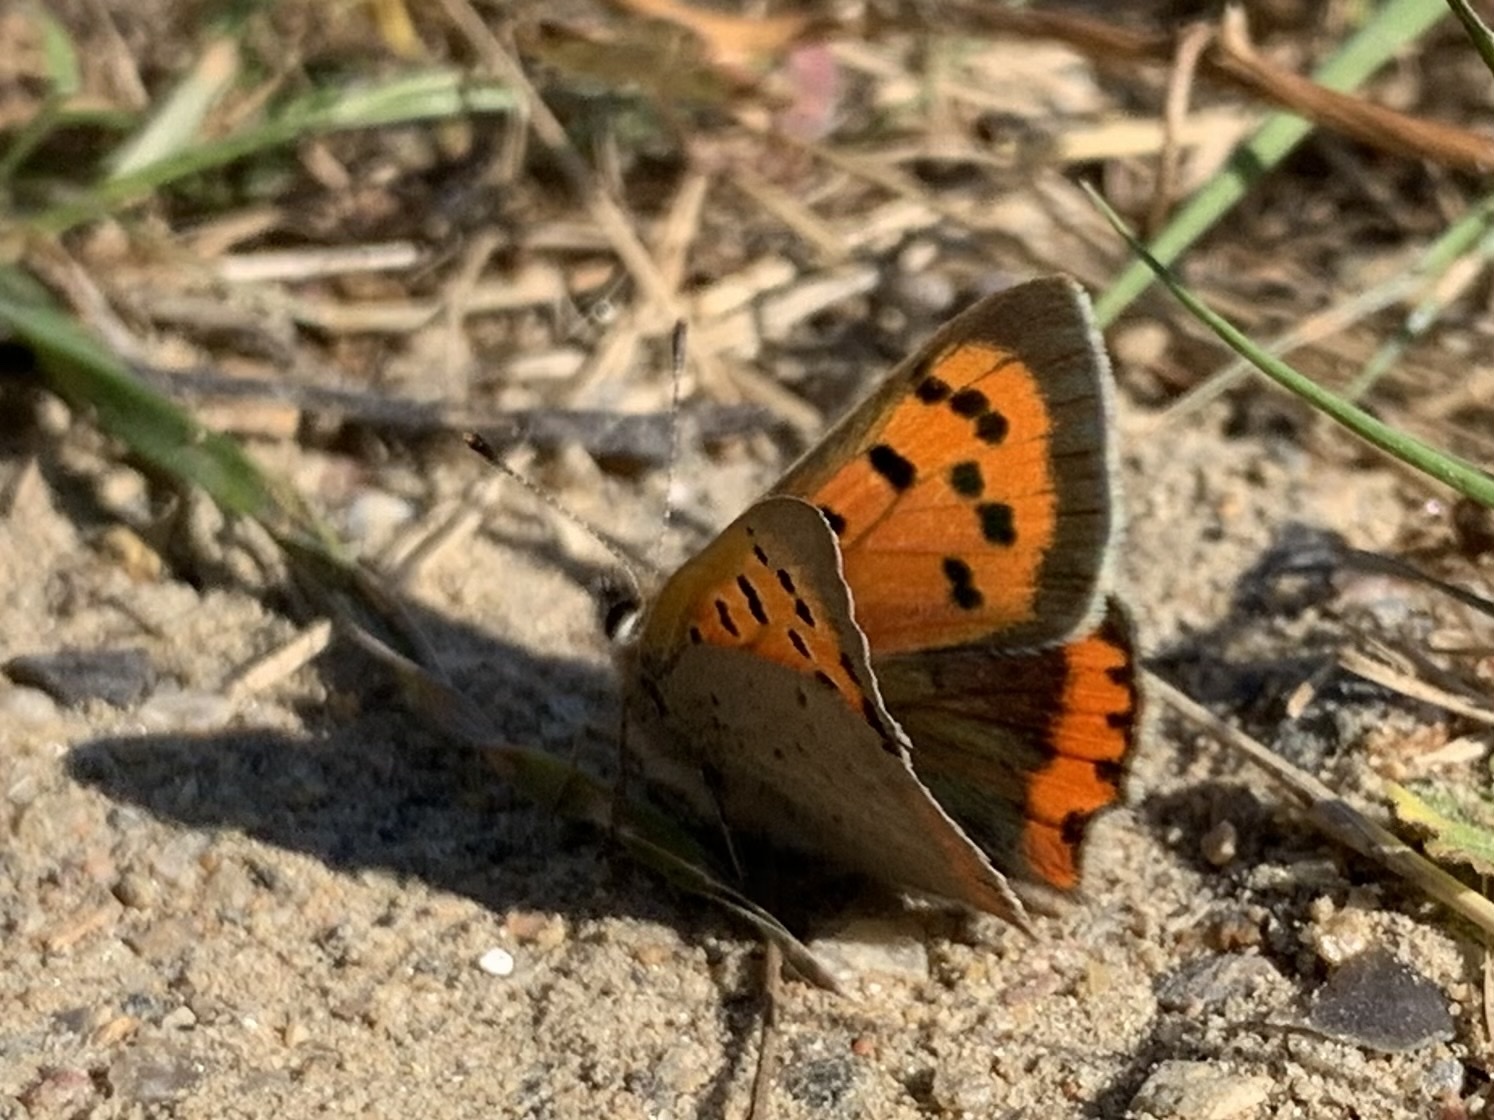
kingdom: Animalia
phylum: Arthropoda
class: Insecta
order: Lepidoptera
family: Lycaenidae
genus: Lycaena
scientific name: Lycaena phlaeas
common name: Small copper
